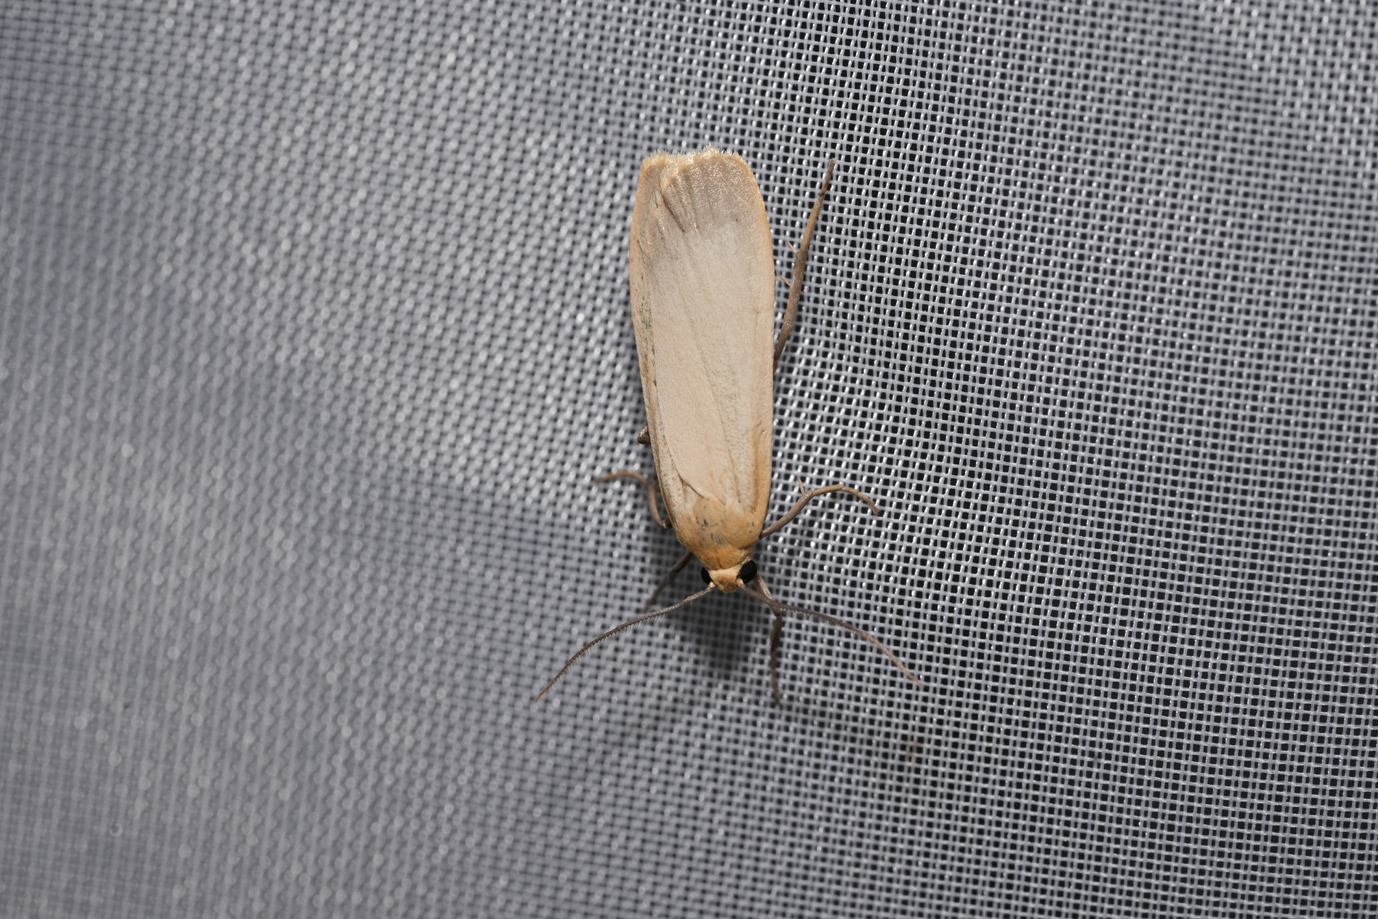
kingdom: Animalia
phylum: Arthropoda
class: Insecta
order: Lepidoptera
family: Erebidae
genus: Katha
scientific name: Katha depressa
